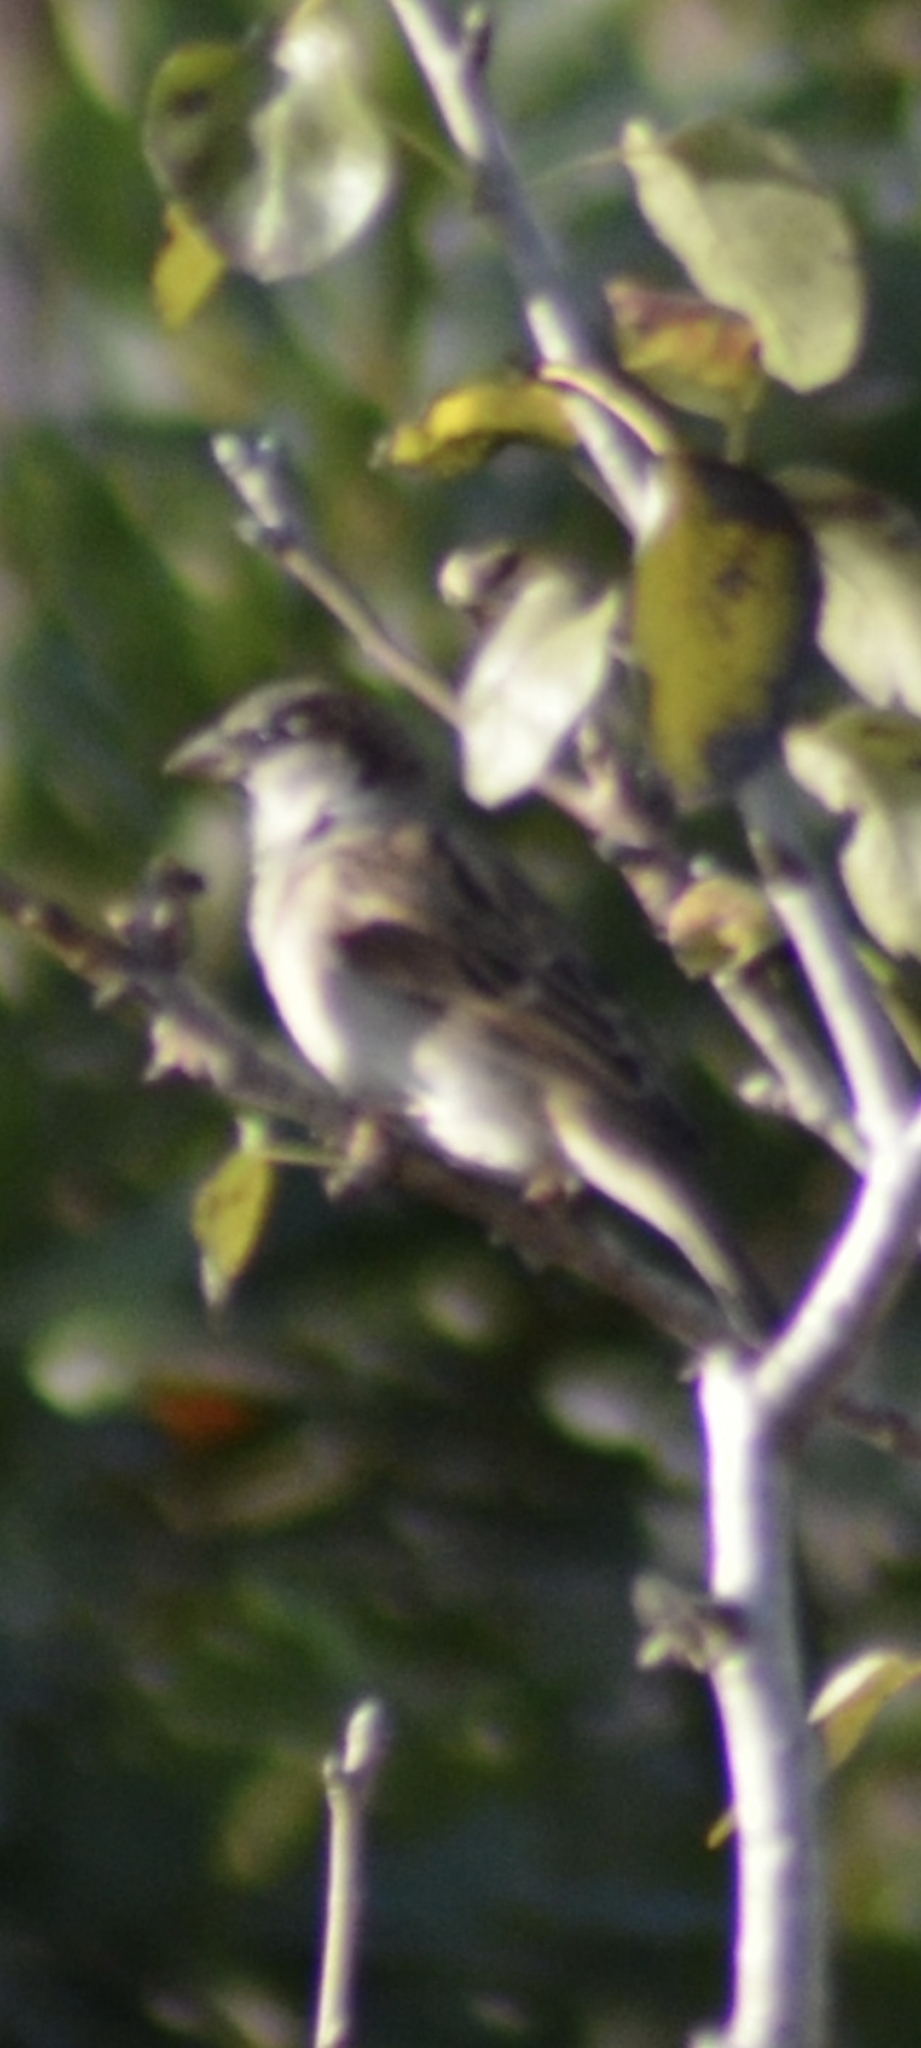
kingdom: Animalia
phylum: Chordata
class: Aves
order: Passeriformes
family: Passeridae
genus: Passer
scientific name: Passer domesticus
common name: House sparrow
